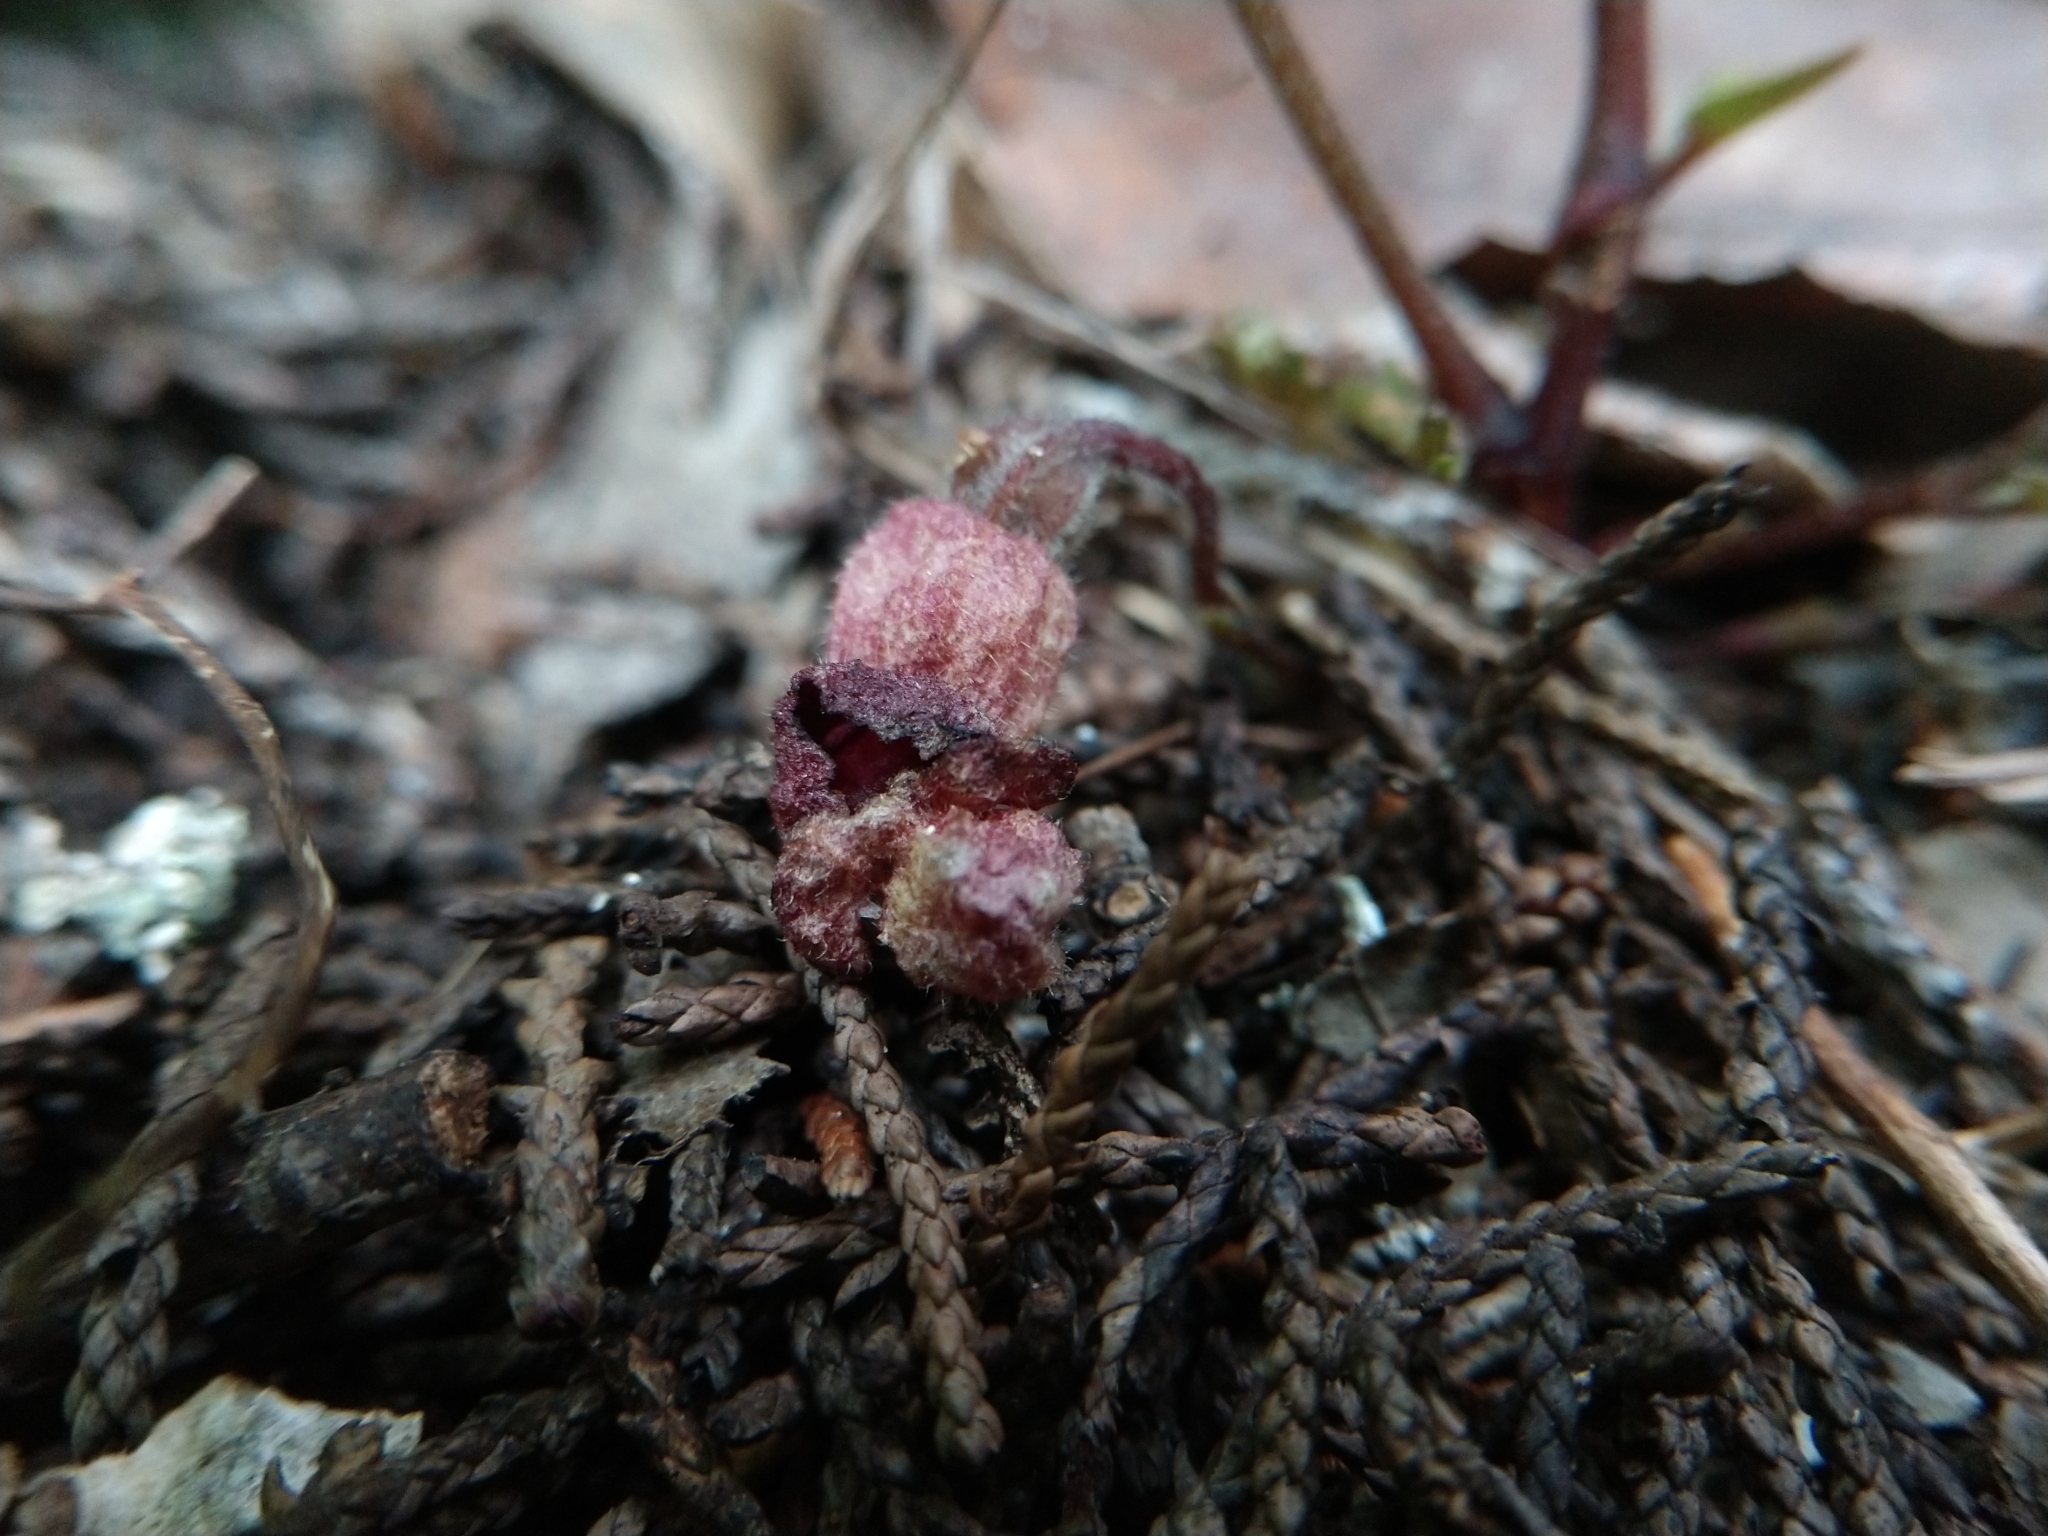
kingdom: Plantae
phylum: Tracheophyta
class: Magnoliopsida
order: Piperales
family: Aristolochiaceae
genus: Endodeca
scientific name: Endodeca serpentaria
